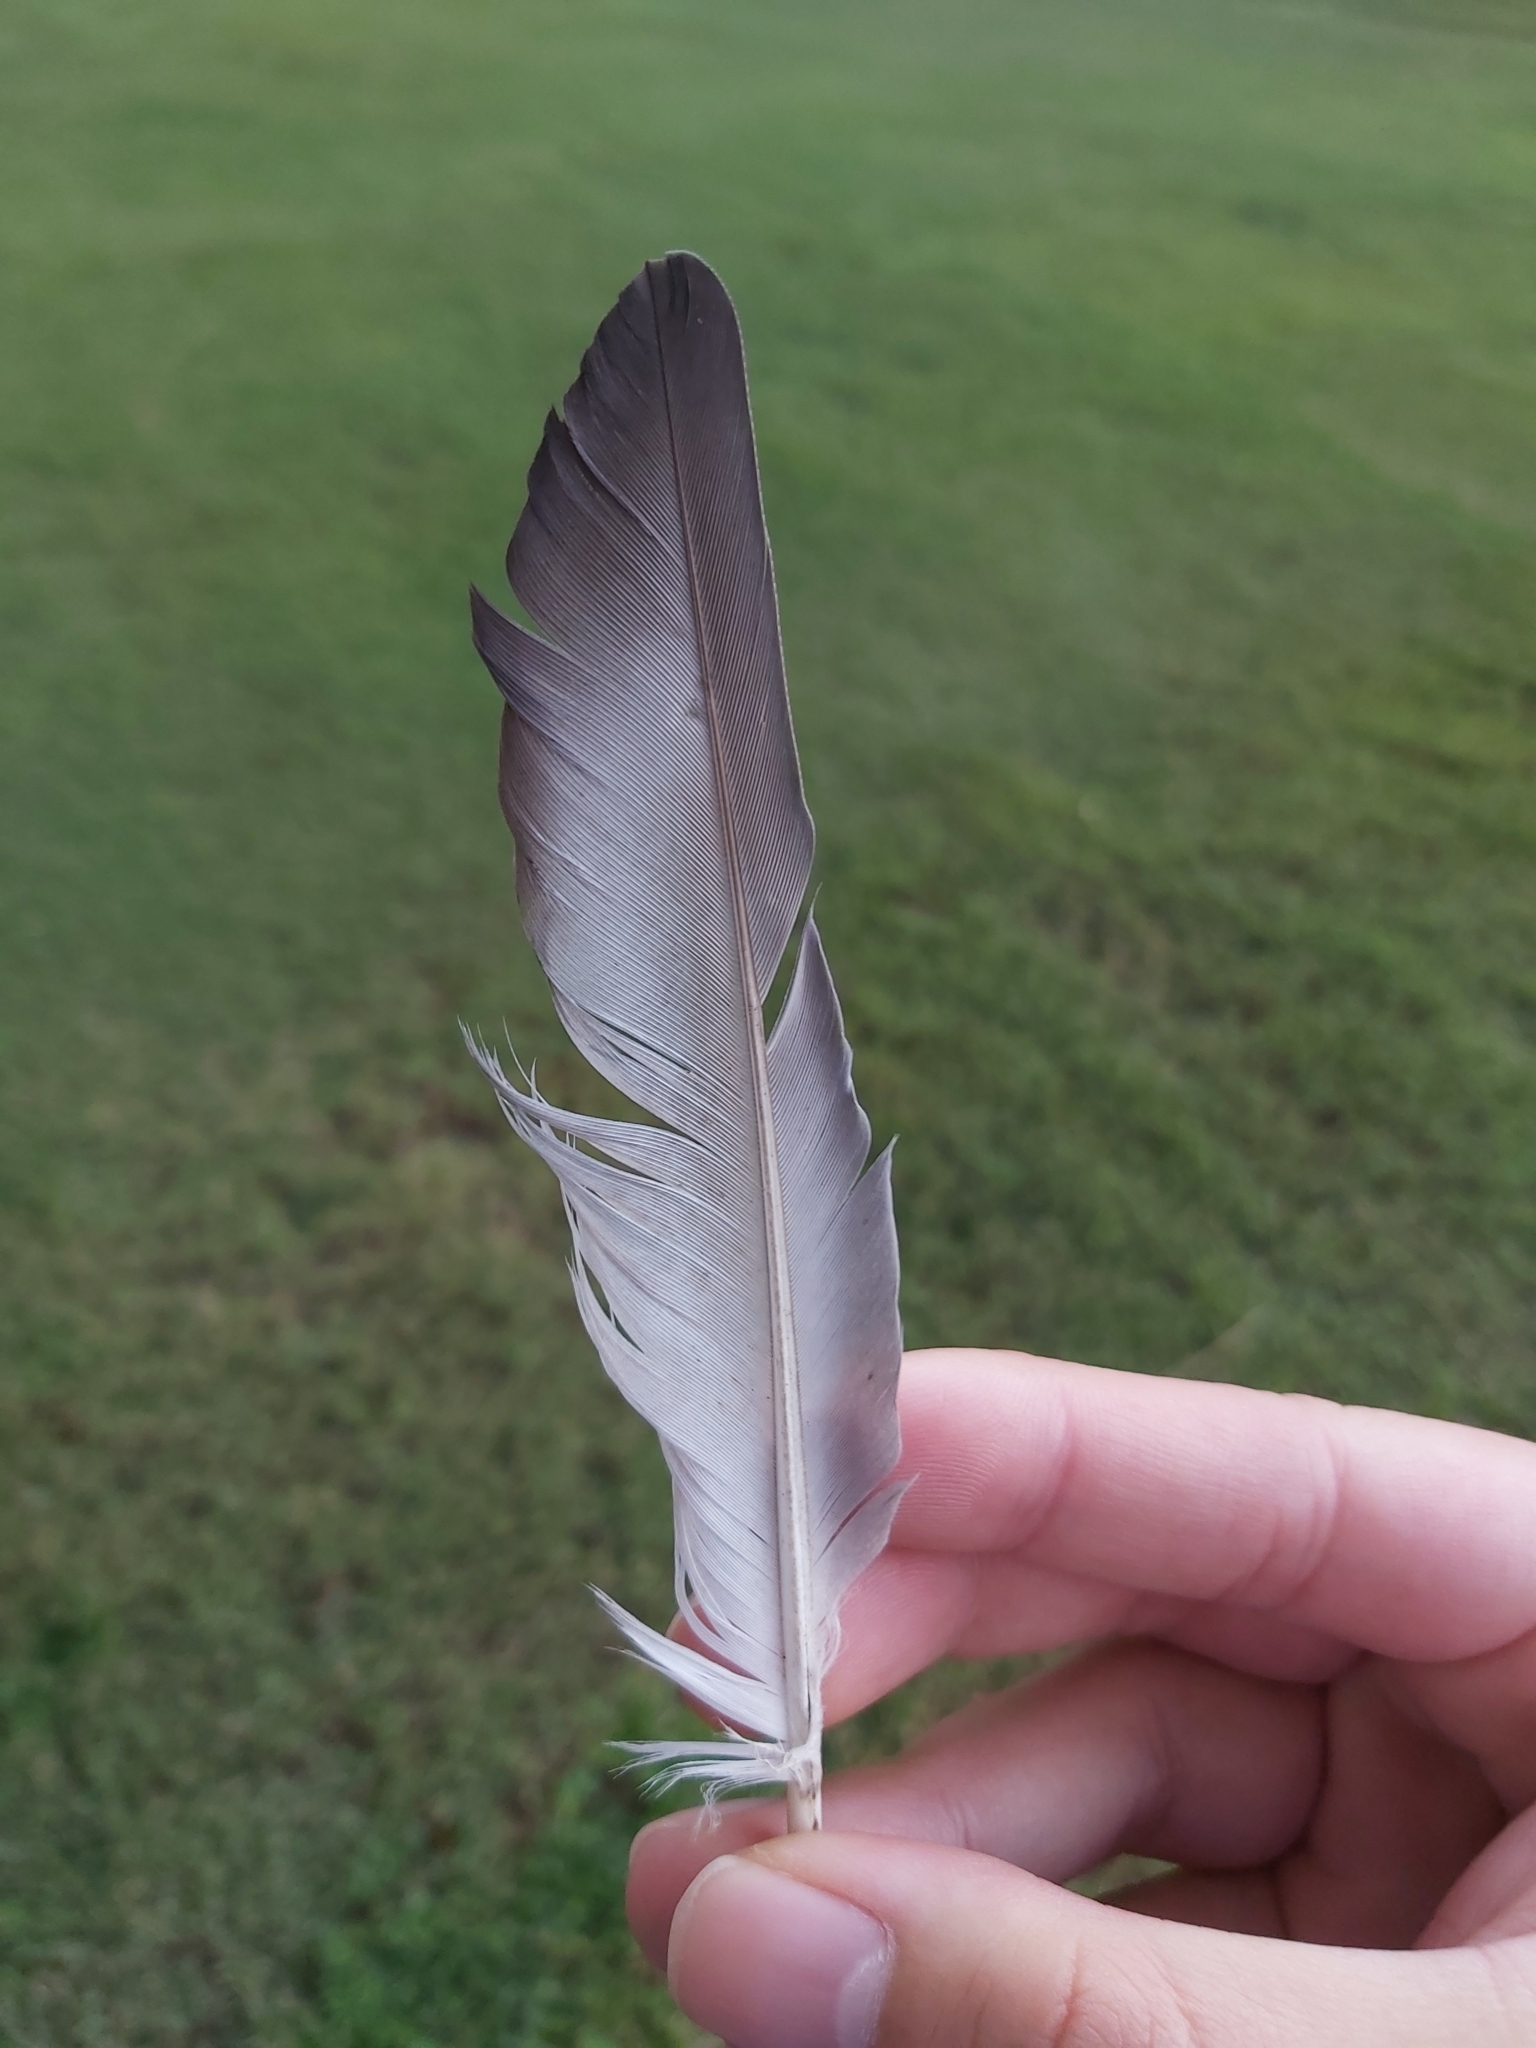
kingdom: Animalia
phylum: Chordata
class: Aves
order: Columbiformes
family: Columbidae
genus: Columba
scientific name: Columba livia
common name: Rock pigeon
